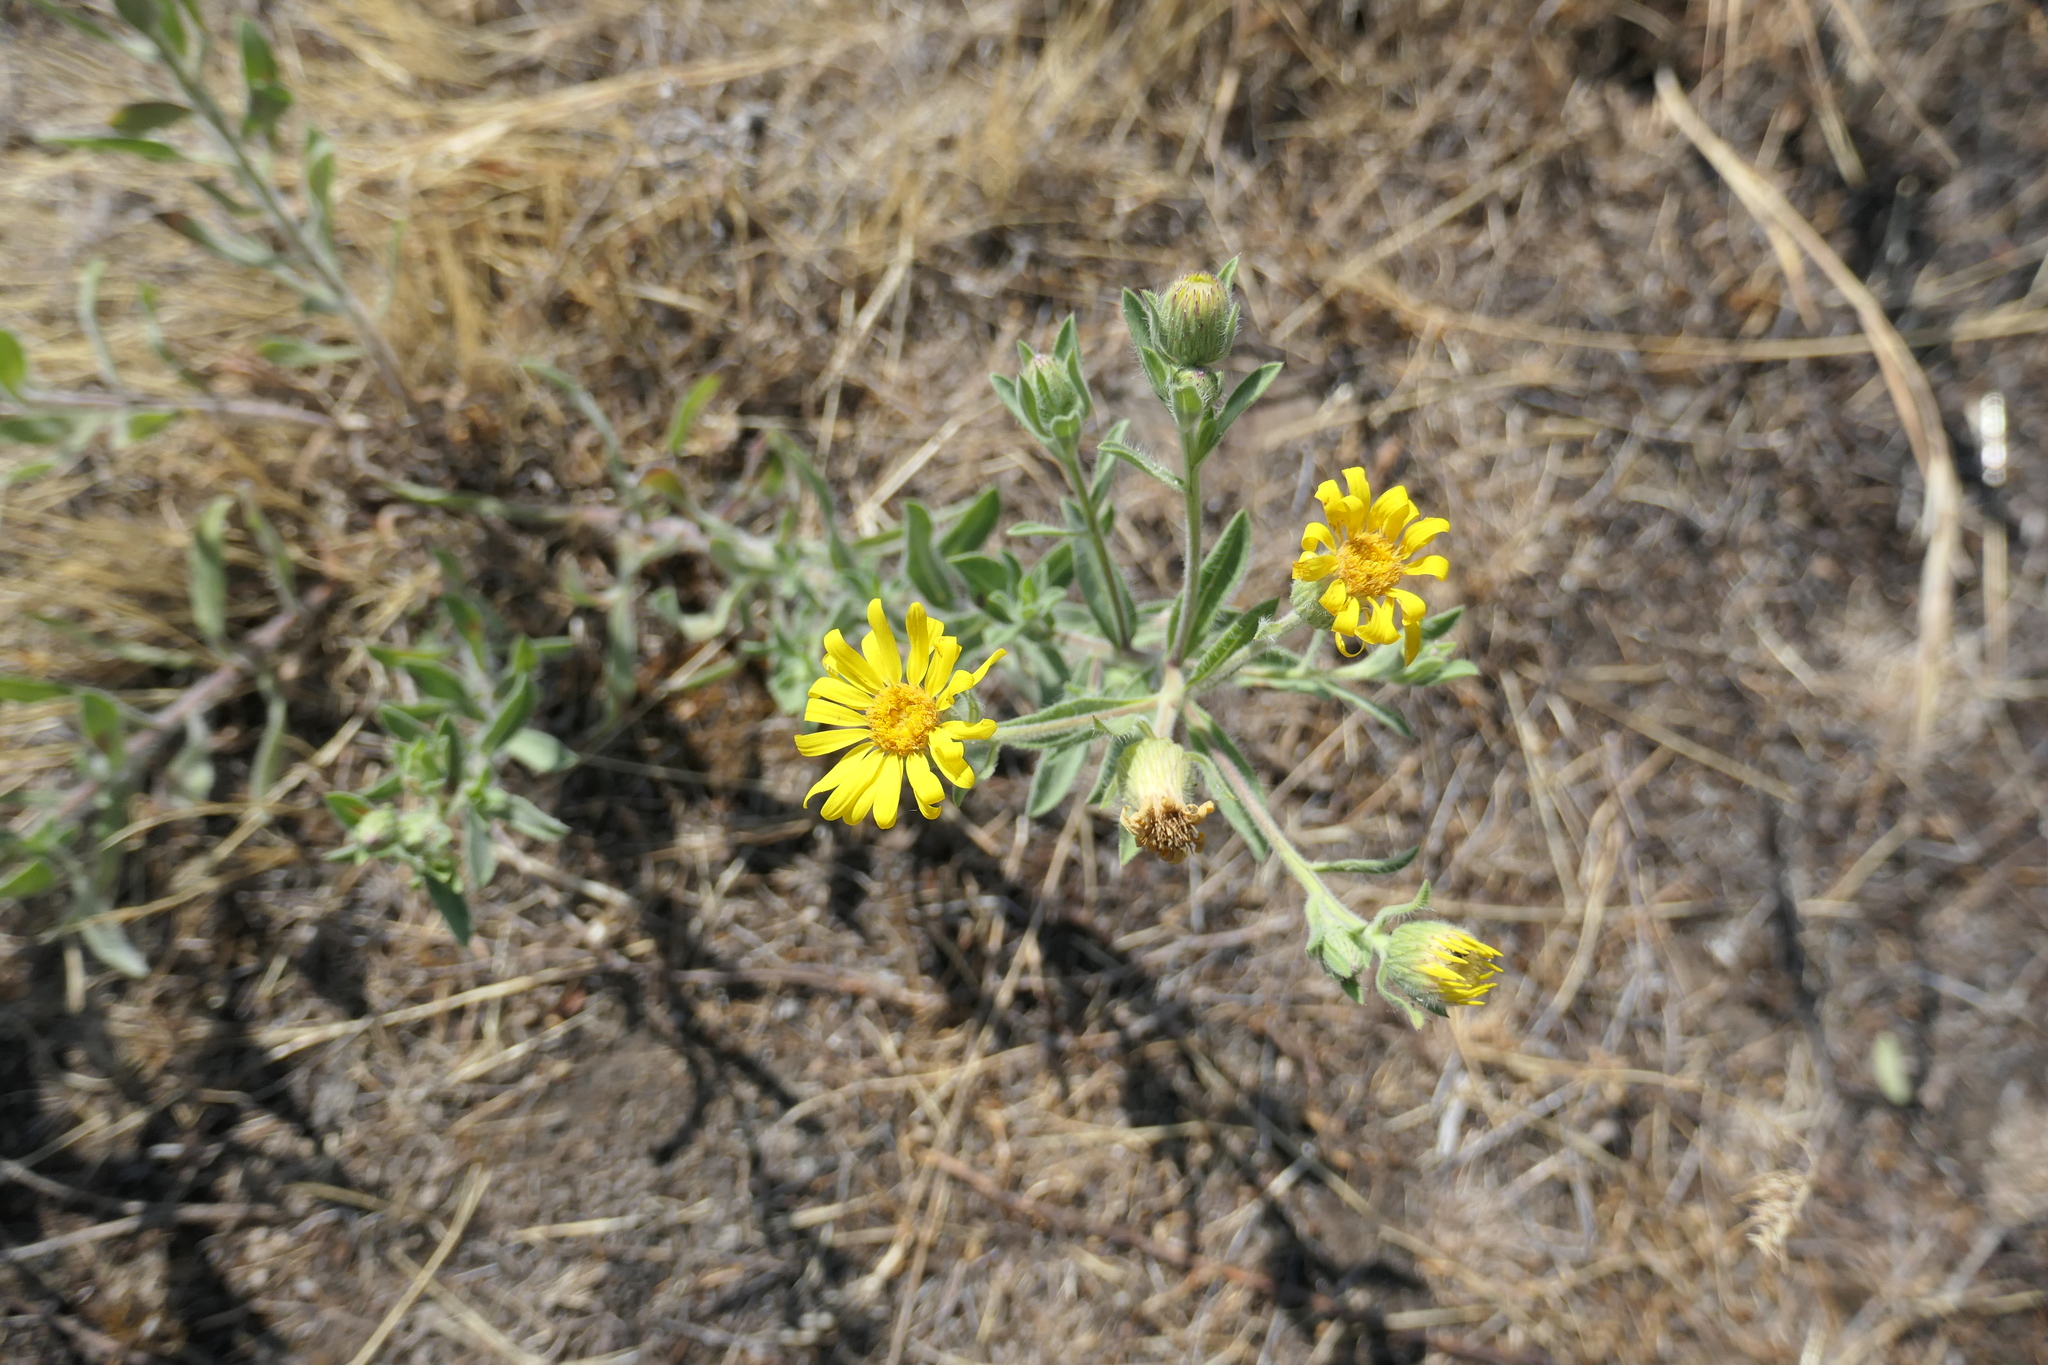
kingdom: Plantae
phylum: Tracheophyta
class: Magnoliopsida
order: Asterales
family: Asteraceae
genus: Heterotheca
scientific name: Heterotheca vespertina
